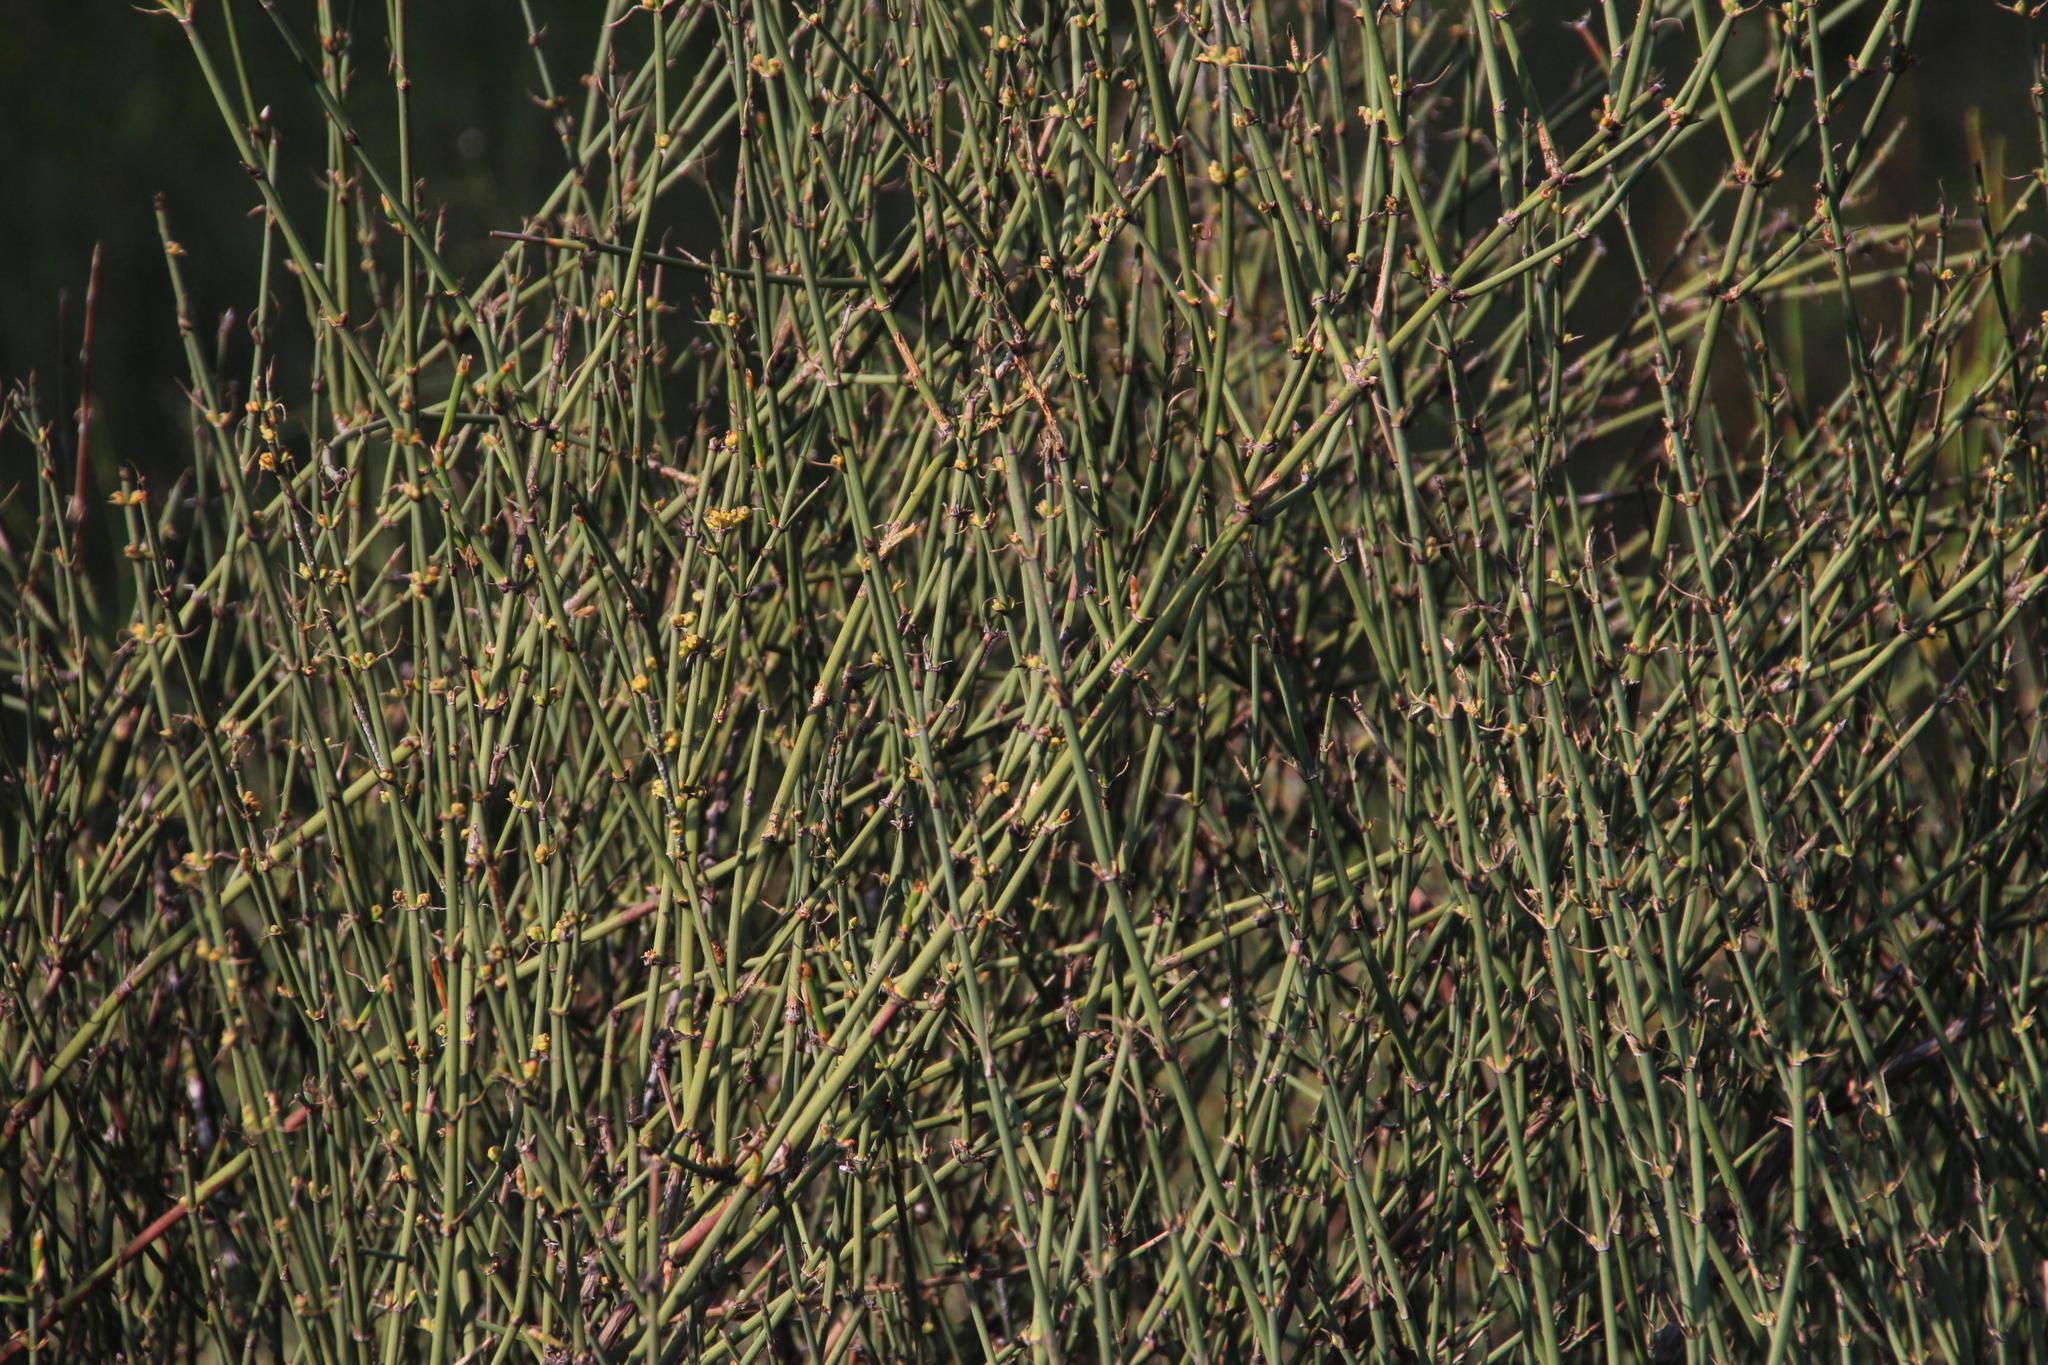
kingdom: Plantae
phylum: Tracheophyta
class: Gnetopsida
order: Ephedrales
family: Ephedraceae
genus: Ephedra
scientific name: Ephedra chilensis
